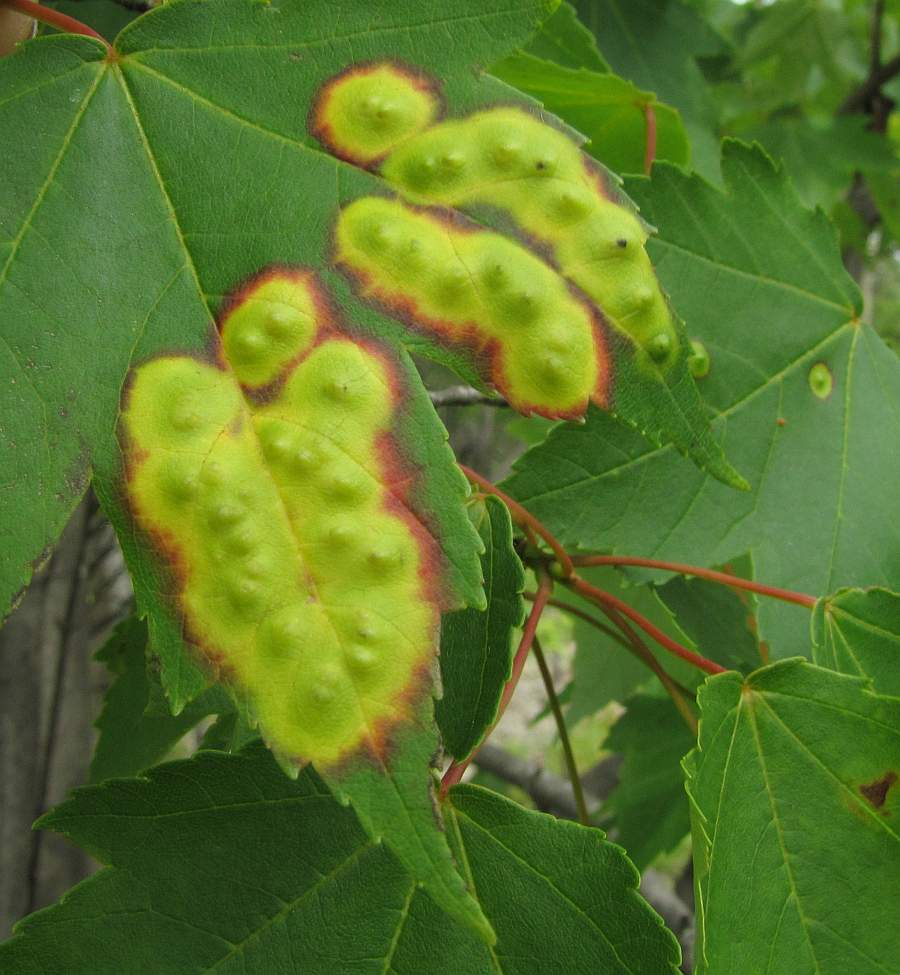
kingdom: Animalia
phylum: Arthropoda
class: Insecta
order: Diptera
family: Cecidomyiidae
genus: Acericecis
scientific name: Acericecis ocellaris
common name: Ocellate gall midge
